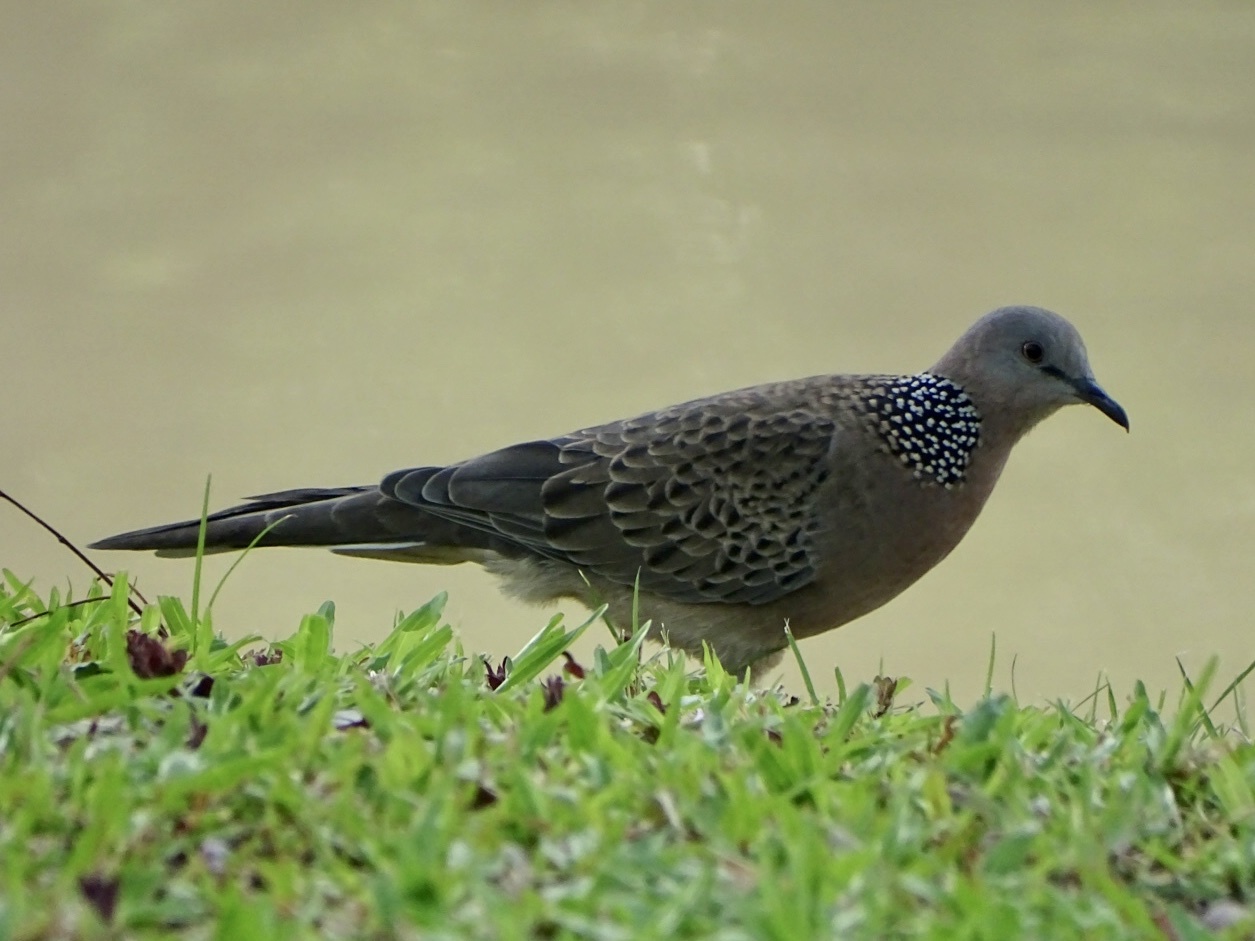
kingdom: Animalia
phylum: Chordata
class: Aves
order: Columbiformes
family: Columbidae
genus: Spilopelia
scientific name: Spilopelia chinensis
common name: Spotted dove
